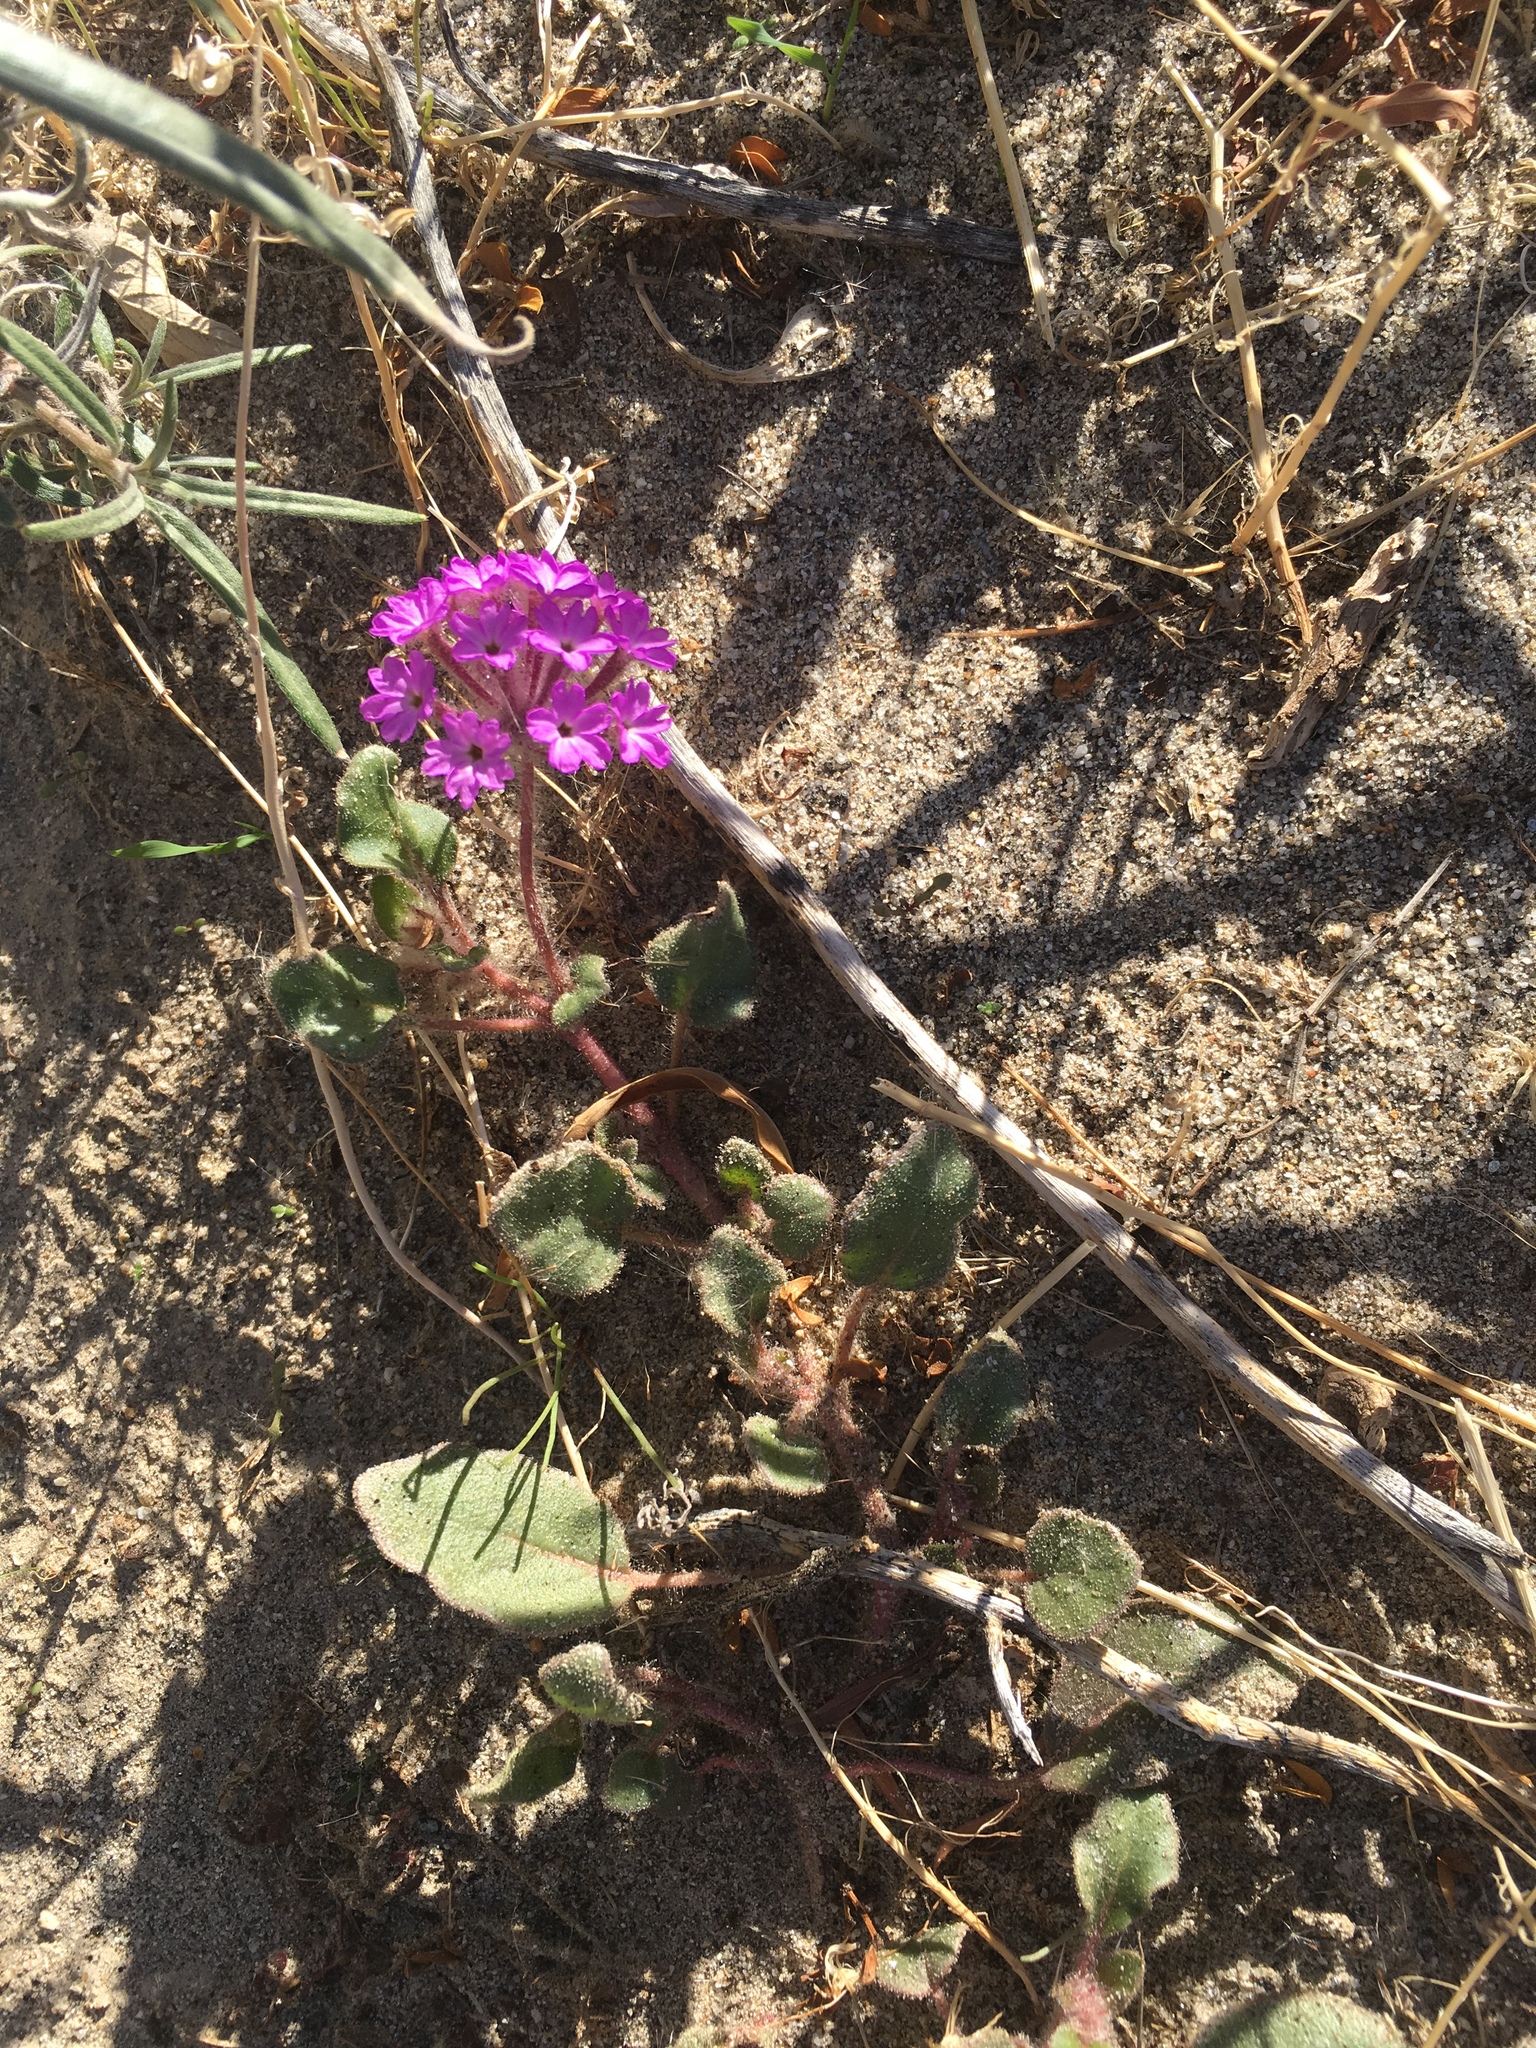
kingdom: Plantae
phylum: Tracheophyta
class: Magnoliopsida
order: Caryophyllales
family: Nyctaginaceae
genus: Abronia
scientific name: Abronia villosa
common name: Desert sand-verbena
